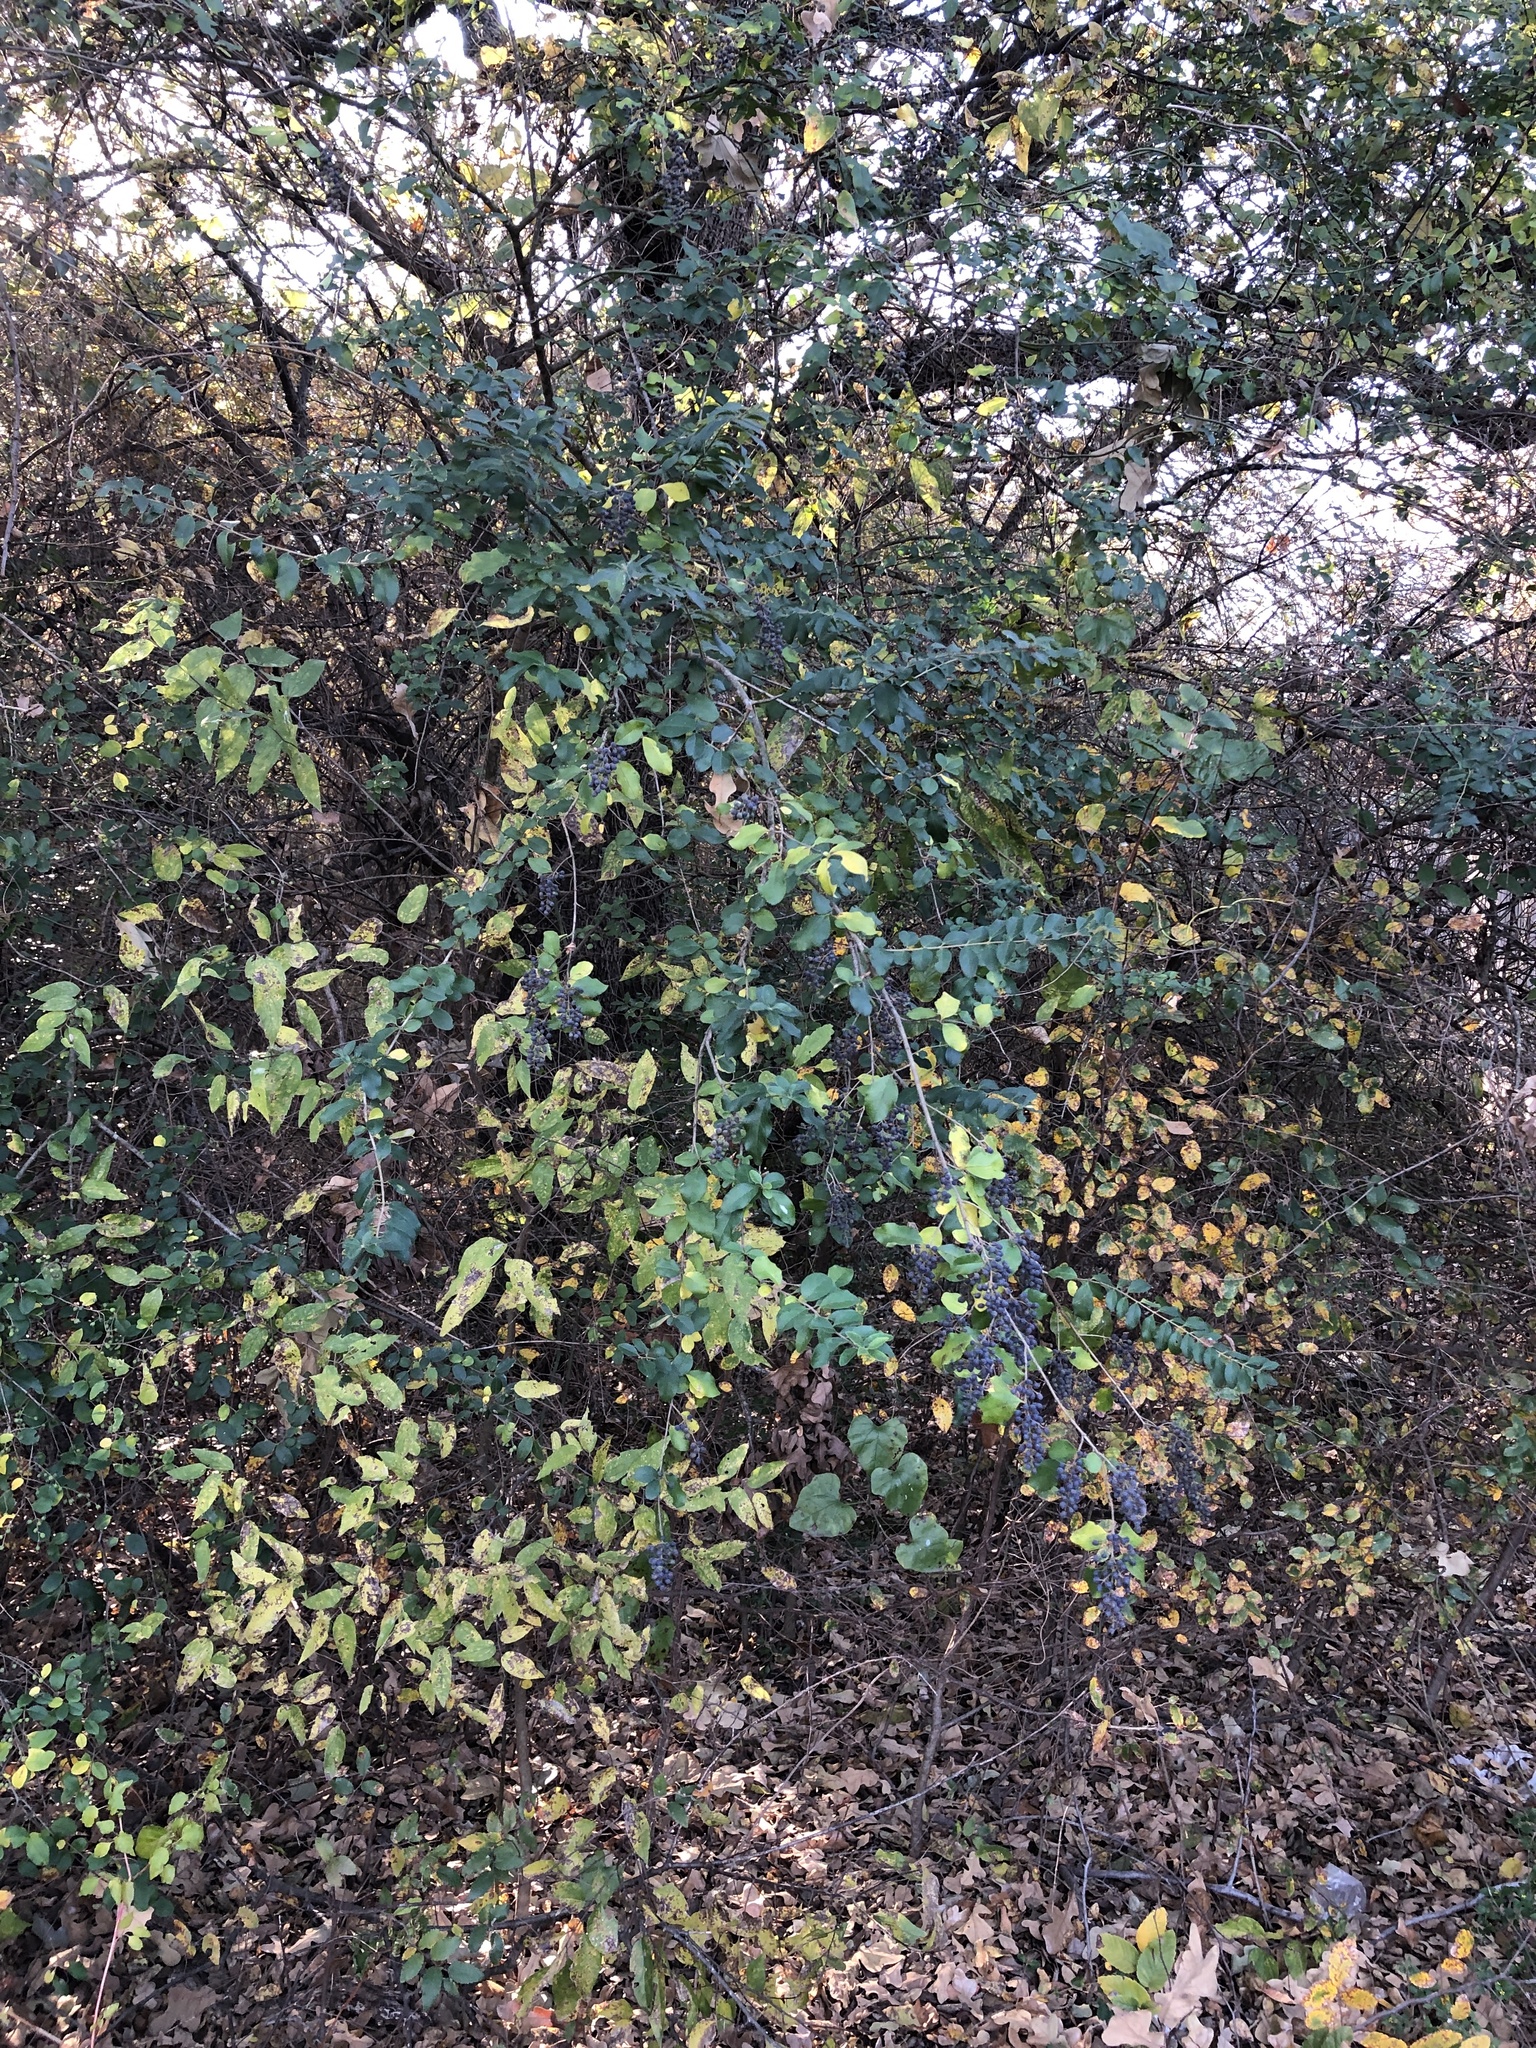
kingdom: Plantae
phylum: Tracheophyta
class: Magnoliopsida
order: Lamiales
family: Oleaceae
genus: Ligustrum
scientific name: Ligustrum sinense
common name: Chinese privet
